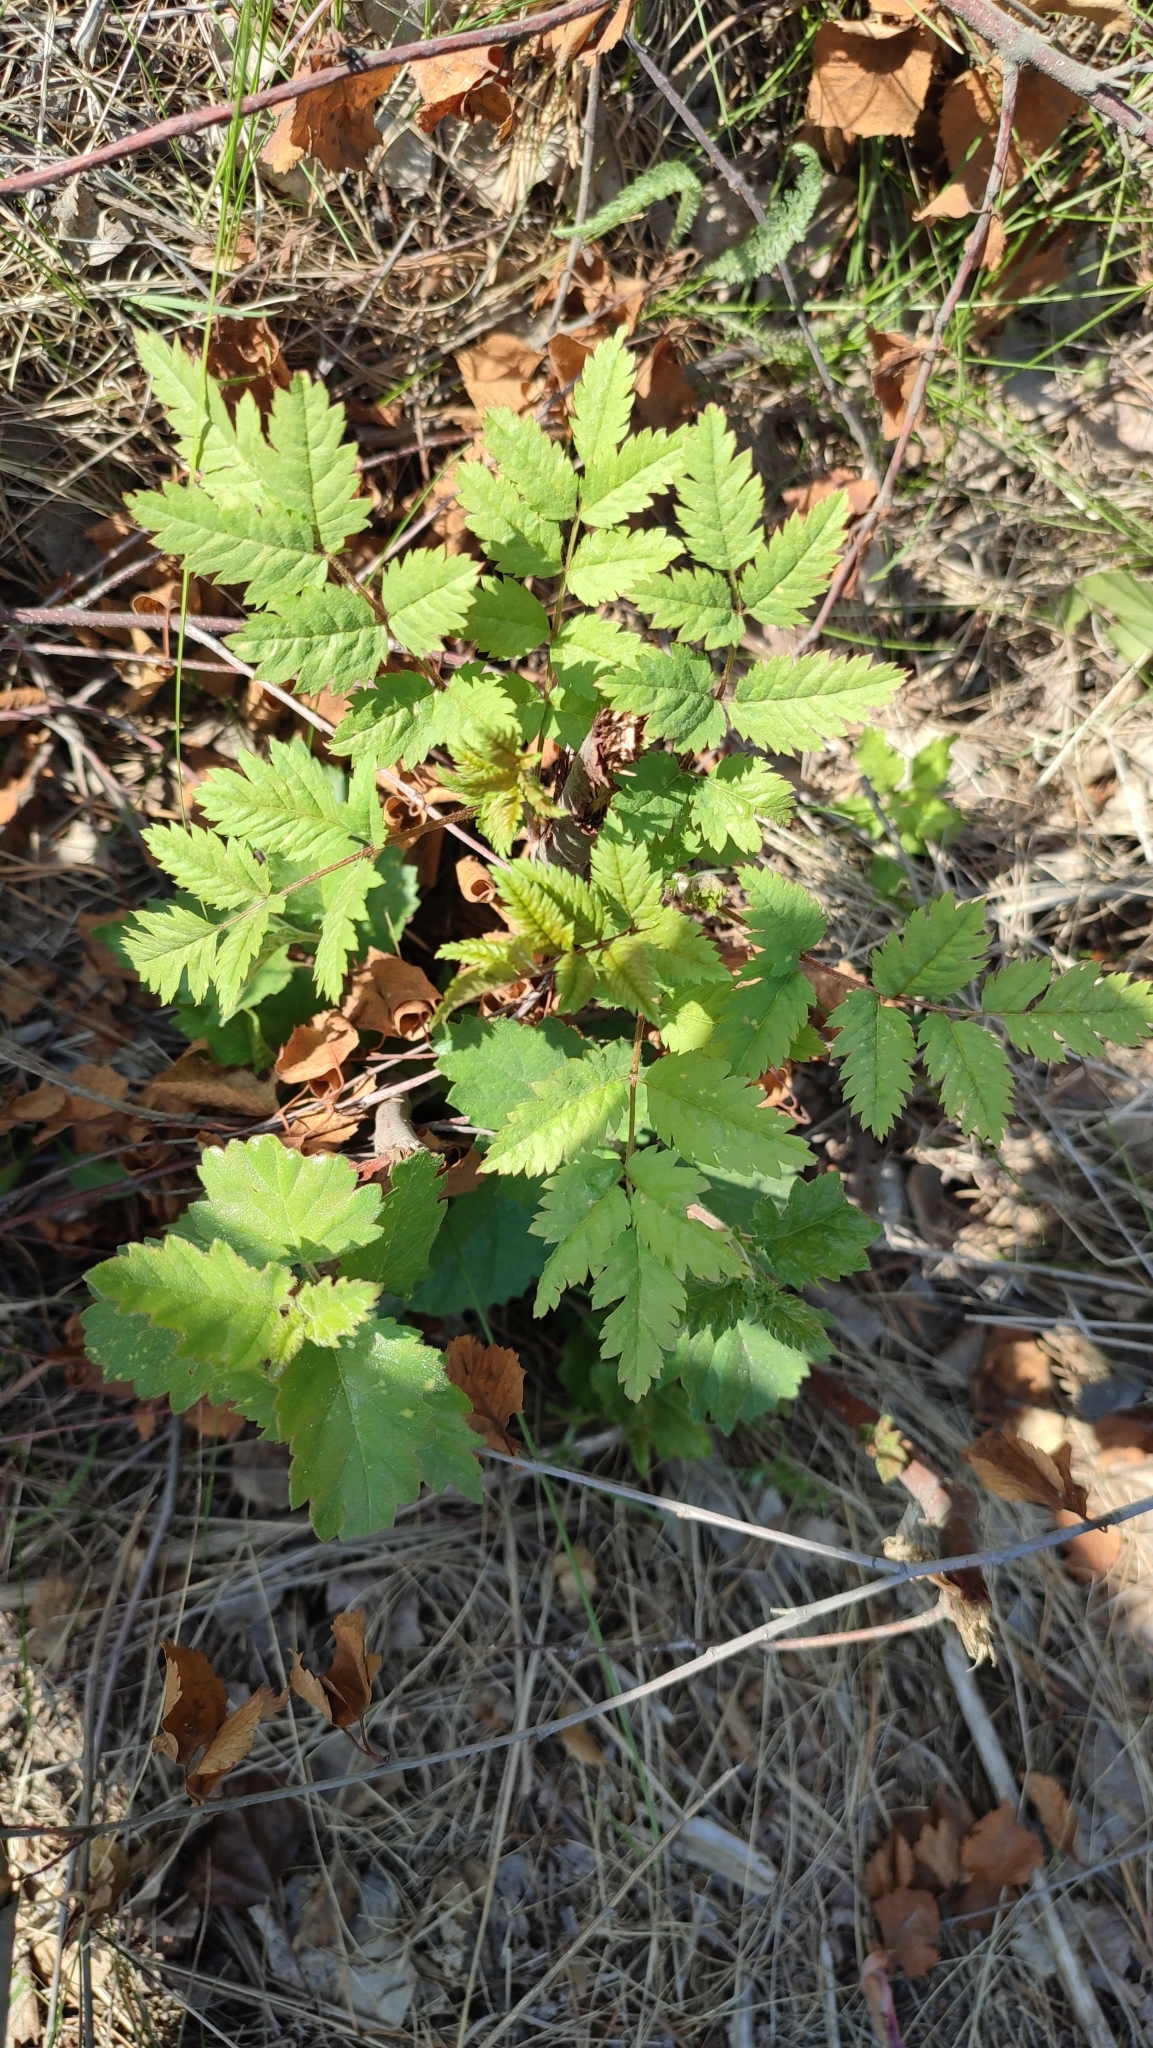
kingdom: Plantae
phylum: Tracheophyta
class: Magnoliopsida
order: Rosales
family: Rosaceae
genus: Sorbus
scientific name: Sorbus aucuparia
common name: Rowan
